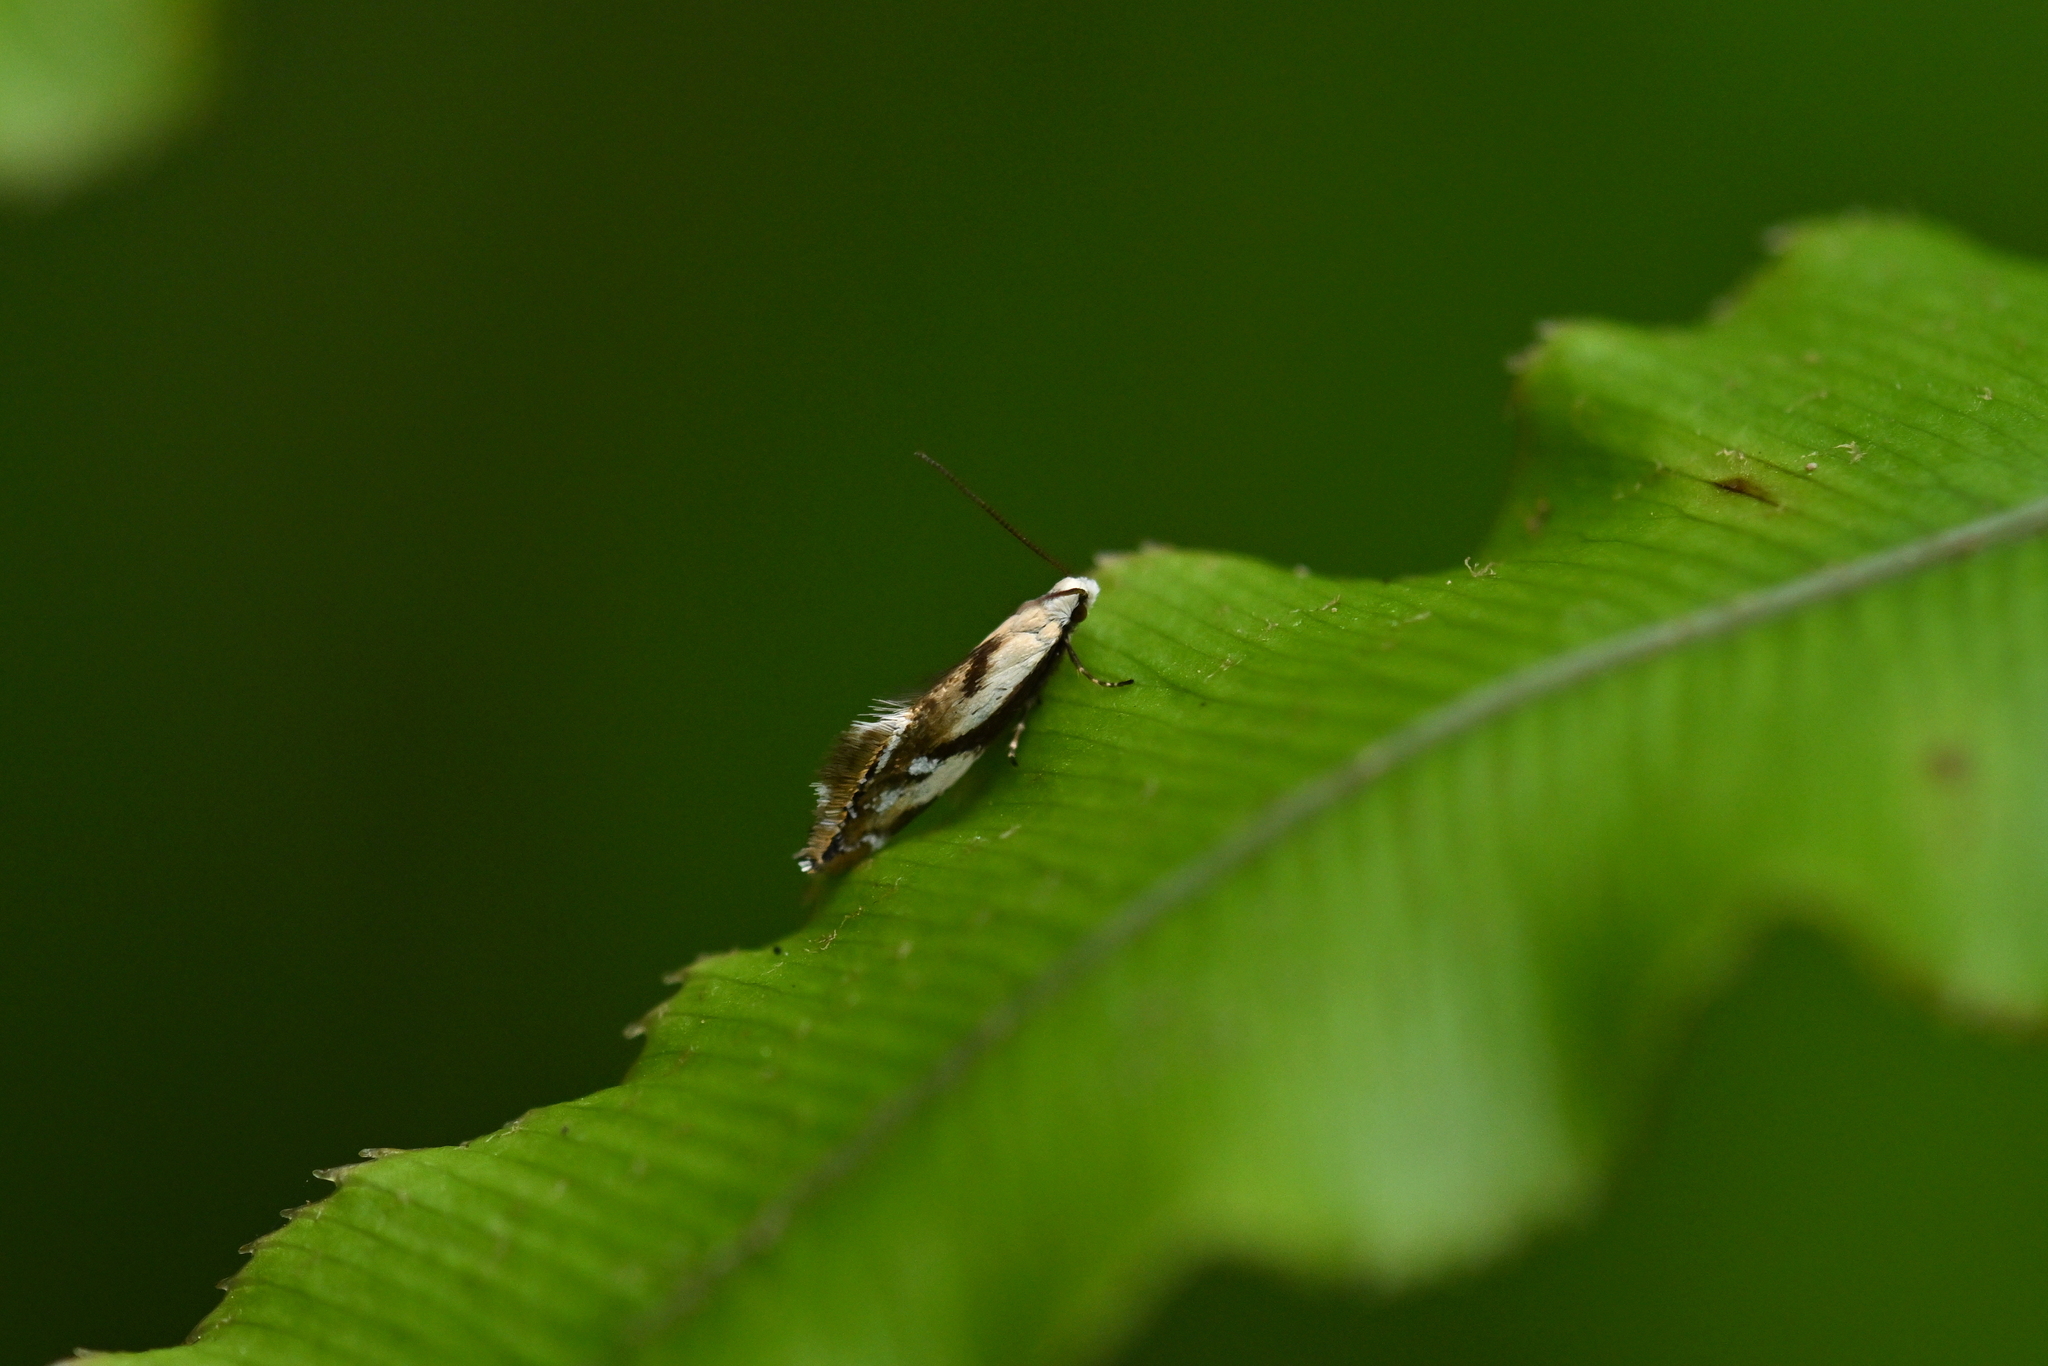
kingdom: Animalia
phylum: Arthropoda
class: Insecta
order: Lepidoptera
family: Mnesarchaeidae
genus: Mnesarchella
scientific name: Mnesarchella acuta
